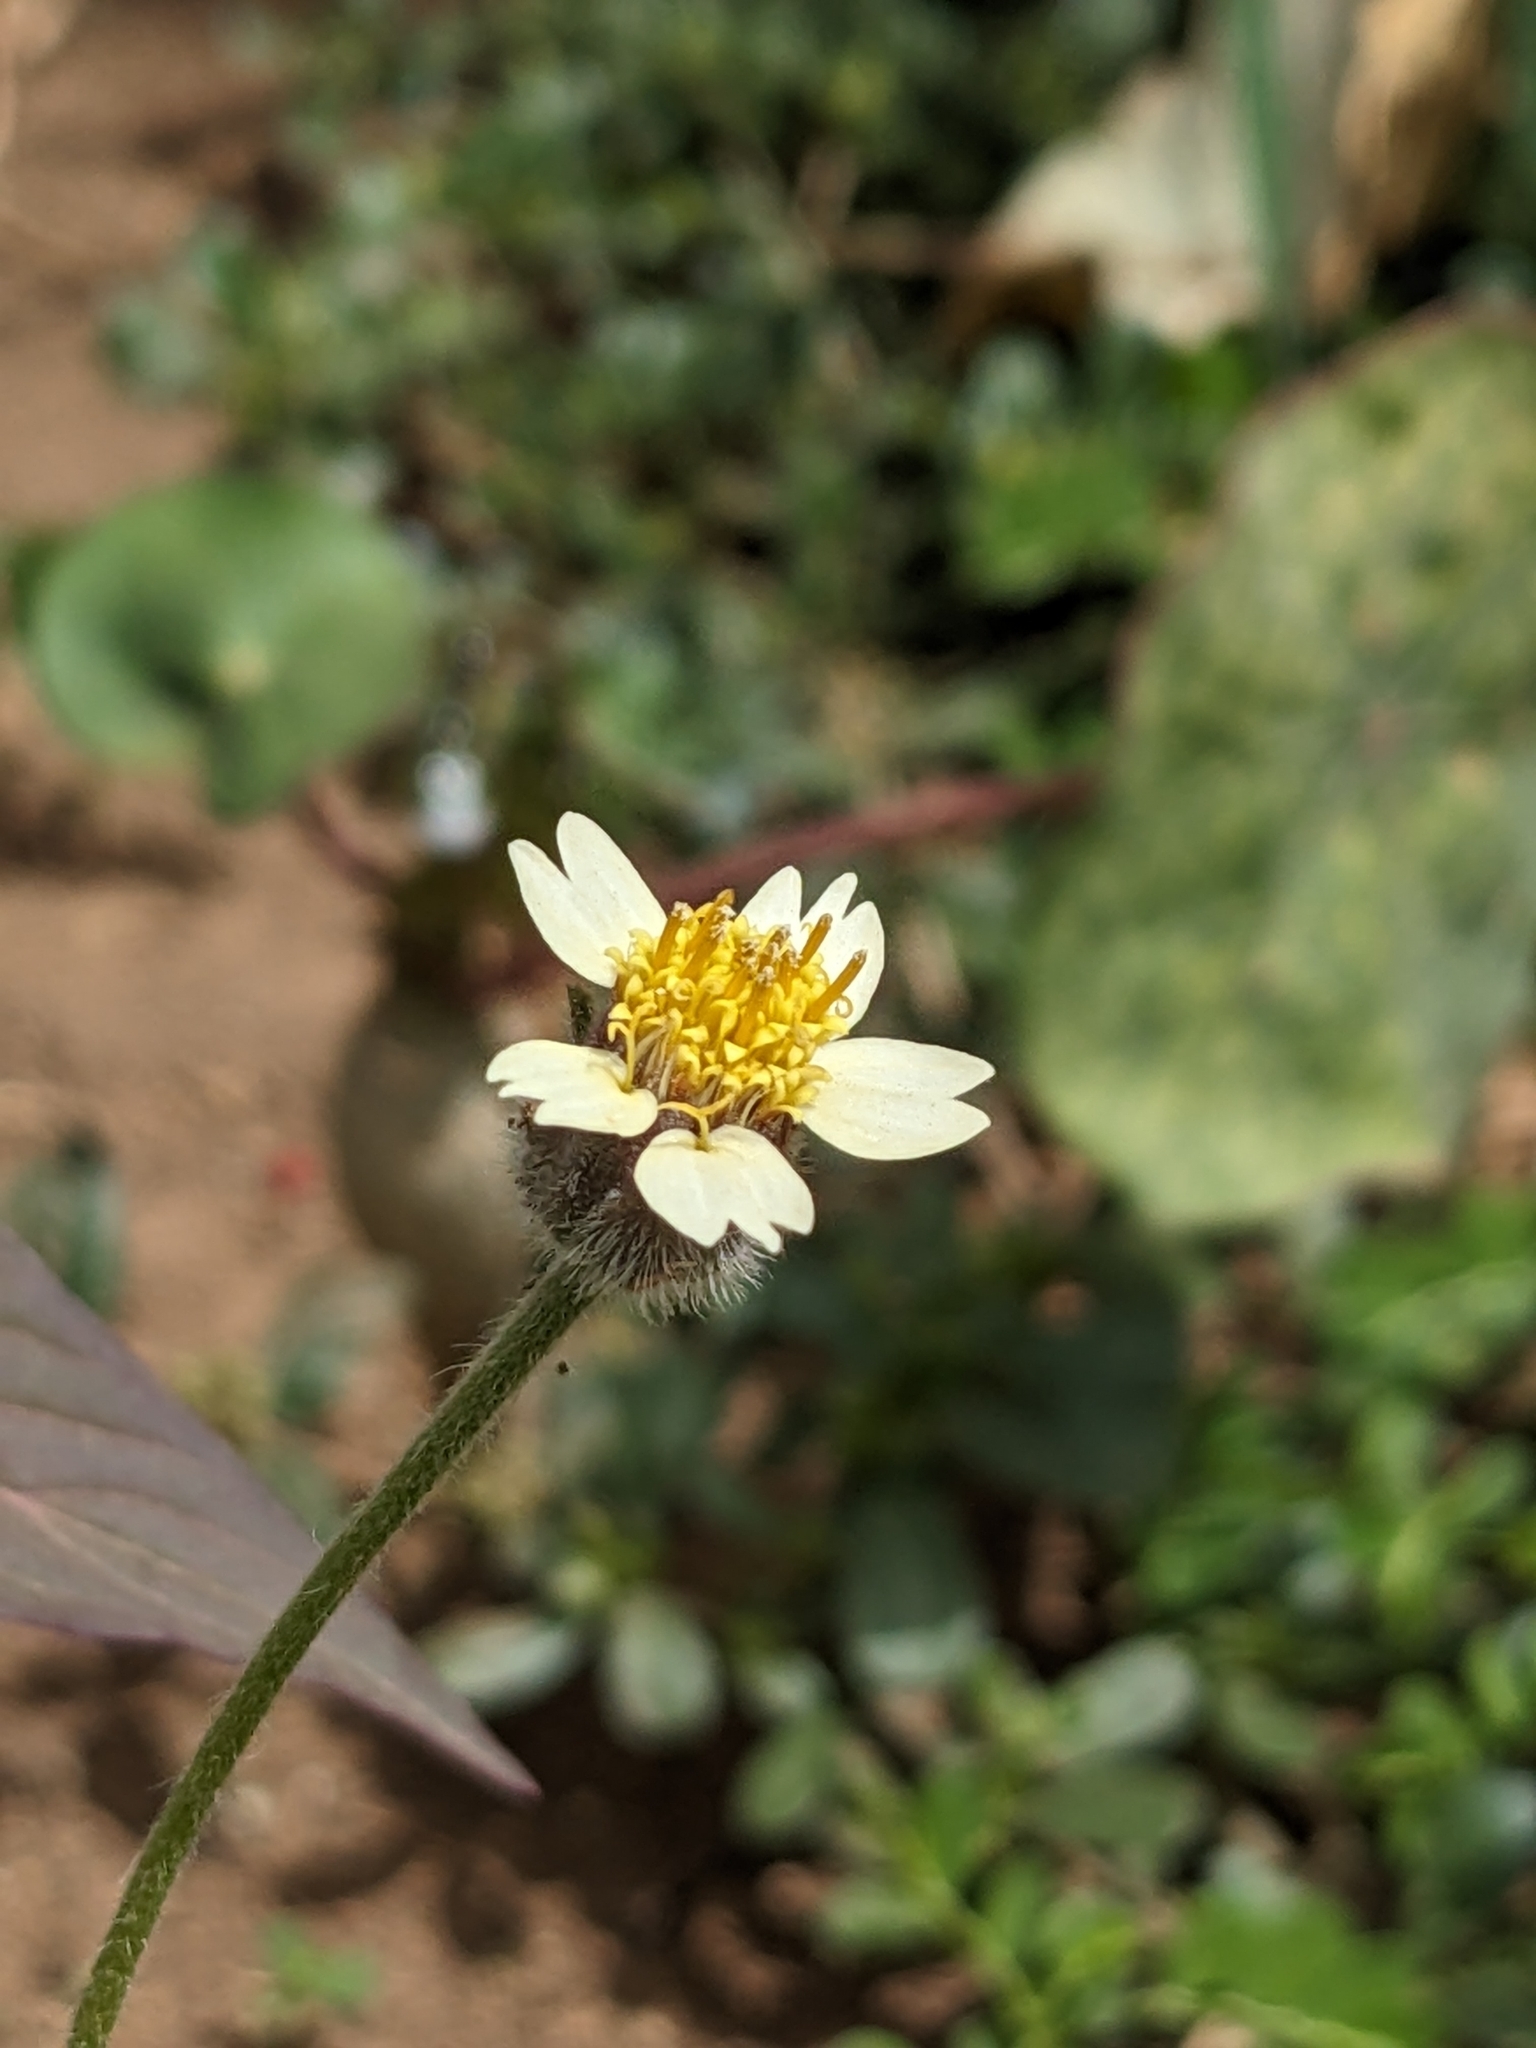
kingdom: Plantae
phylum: Tracheophyta
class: Magnoliopsida
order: Asterales
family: Asteraceae
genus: Tridax
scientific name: Tridax procumbens
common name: Coatbuttons
